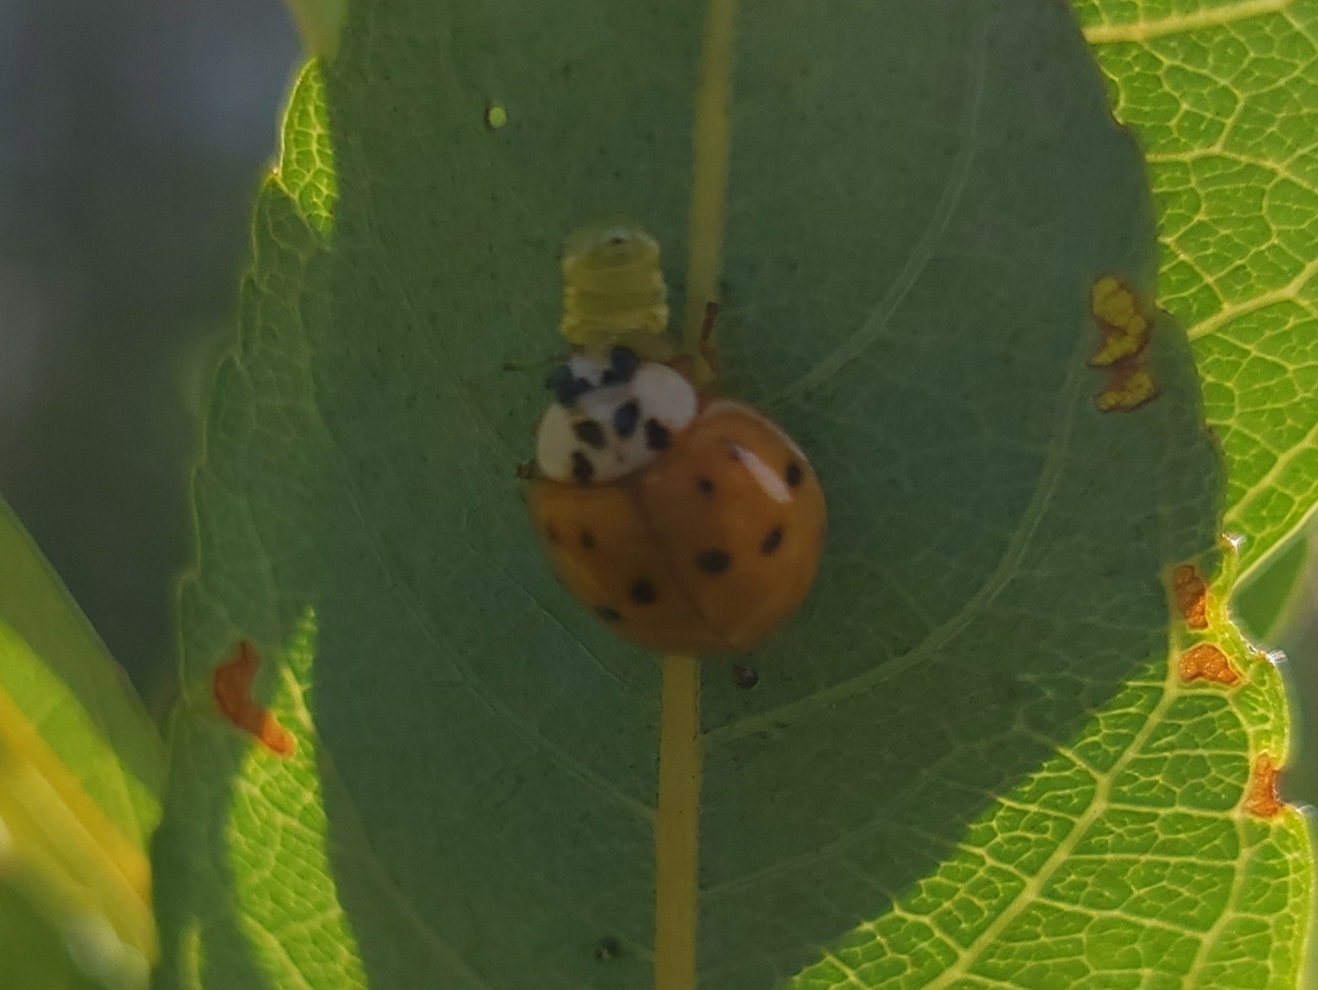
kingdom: Animalia
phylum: Arthropoda
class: Insecta
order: Coleoptera
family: Coccinellidae
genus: Harmonia
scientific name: Harmonia axyridis
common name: Harlequin ladybird
